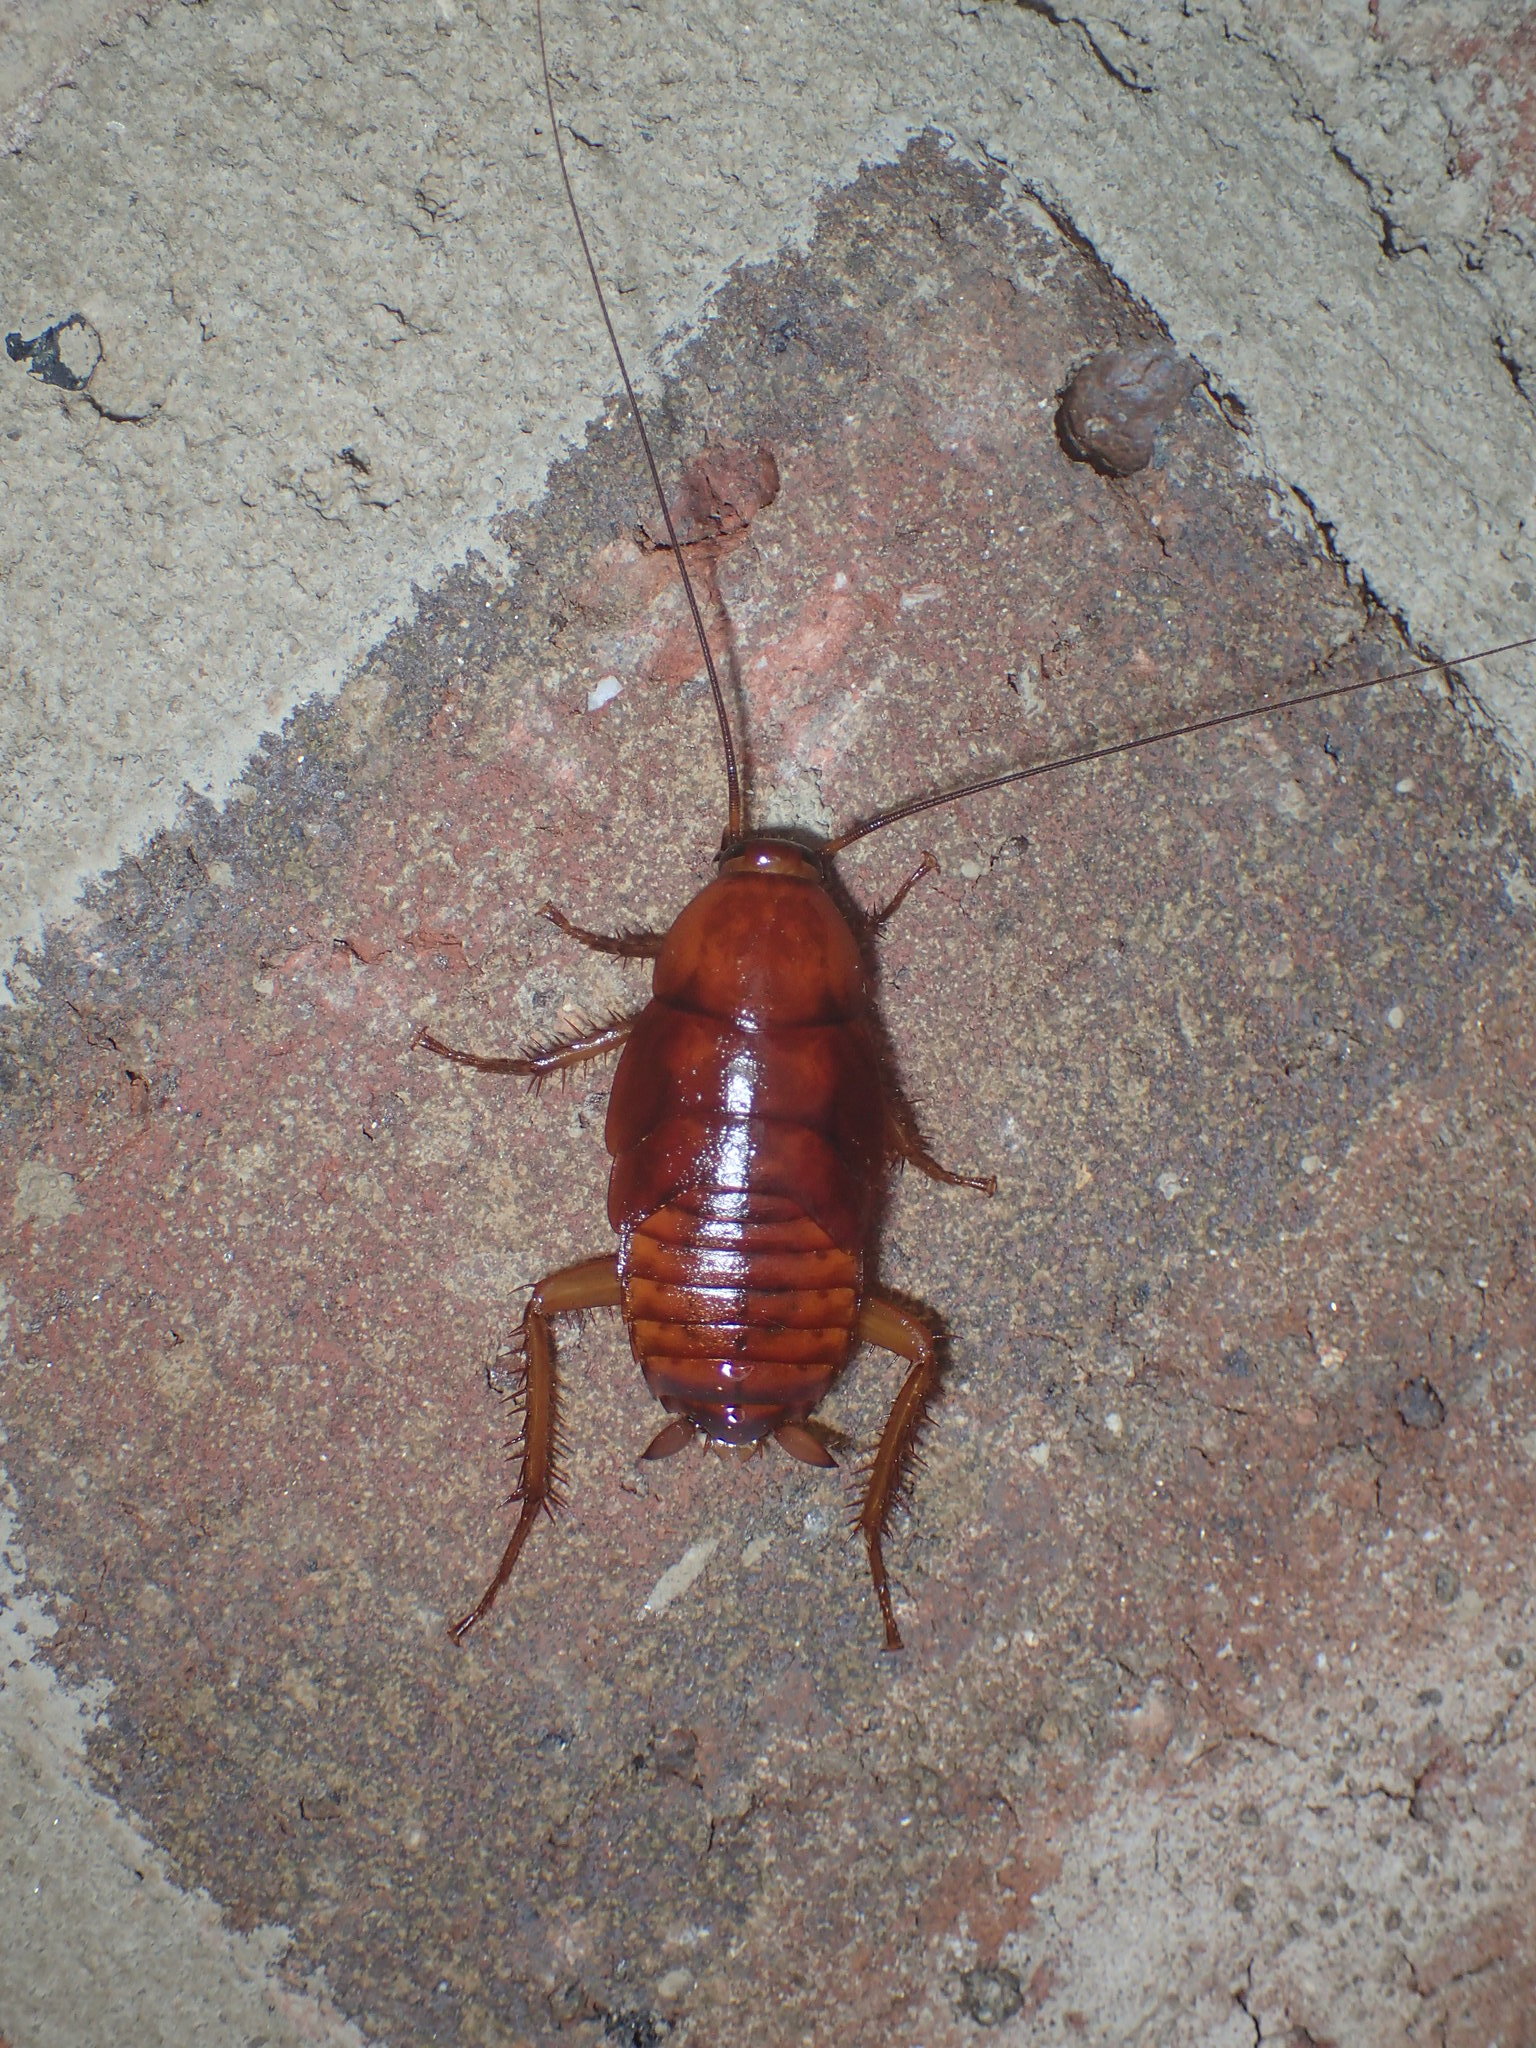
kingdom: Animalia
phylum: Arthropoda
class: Insecta
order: Blattodea
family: Blattidae
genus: Periplaneta
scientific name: Periplaneta fuliginosa
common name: Smokeybrown cockroad
